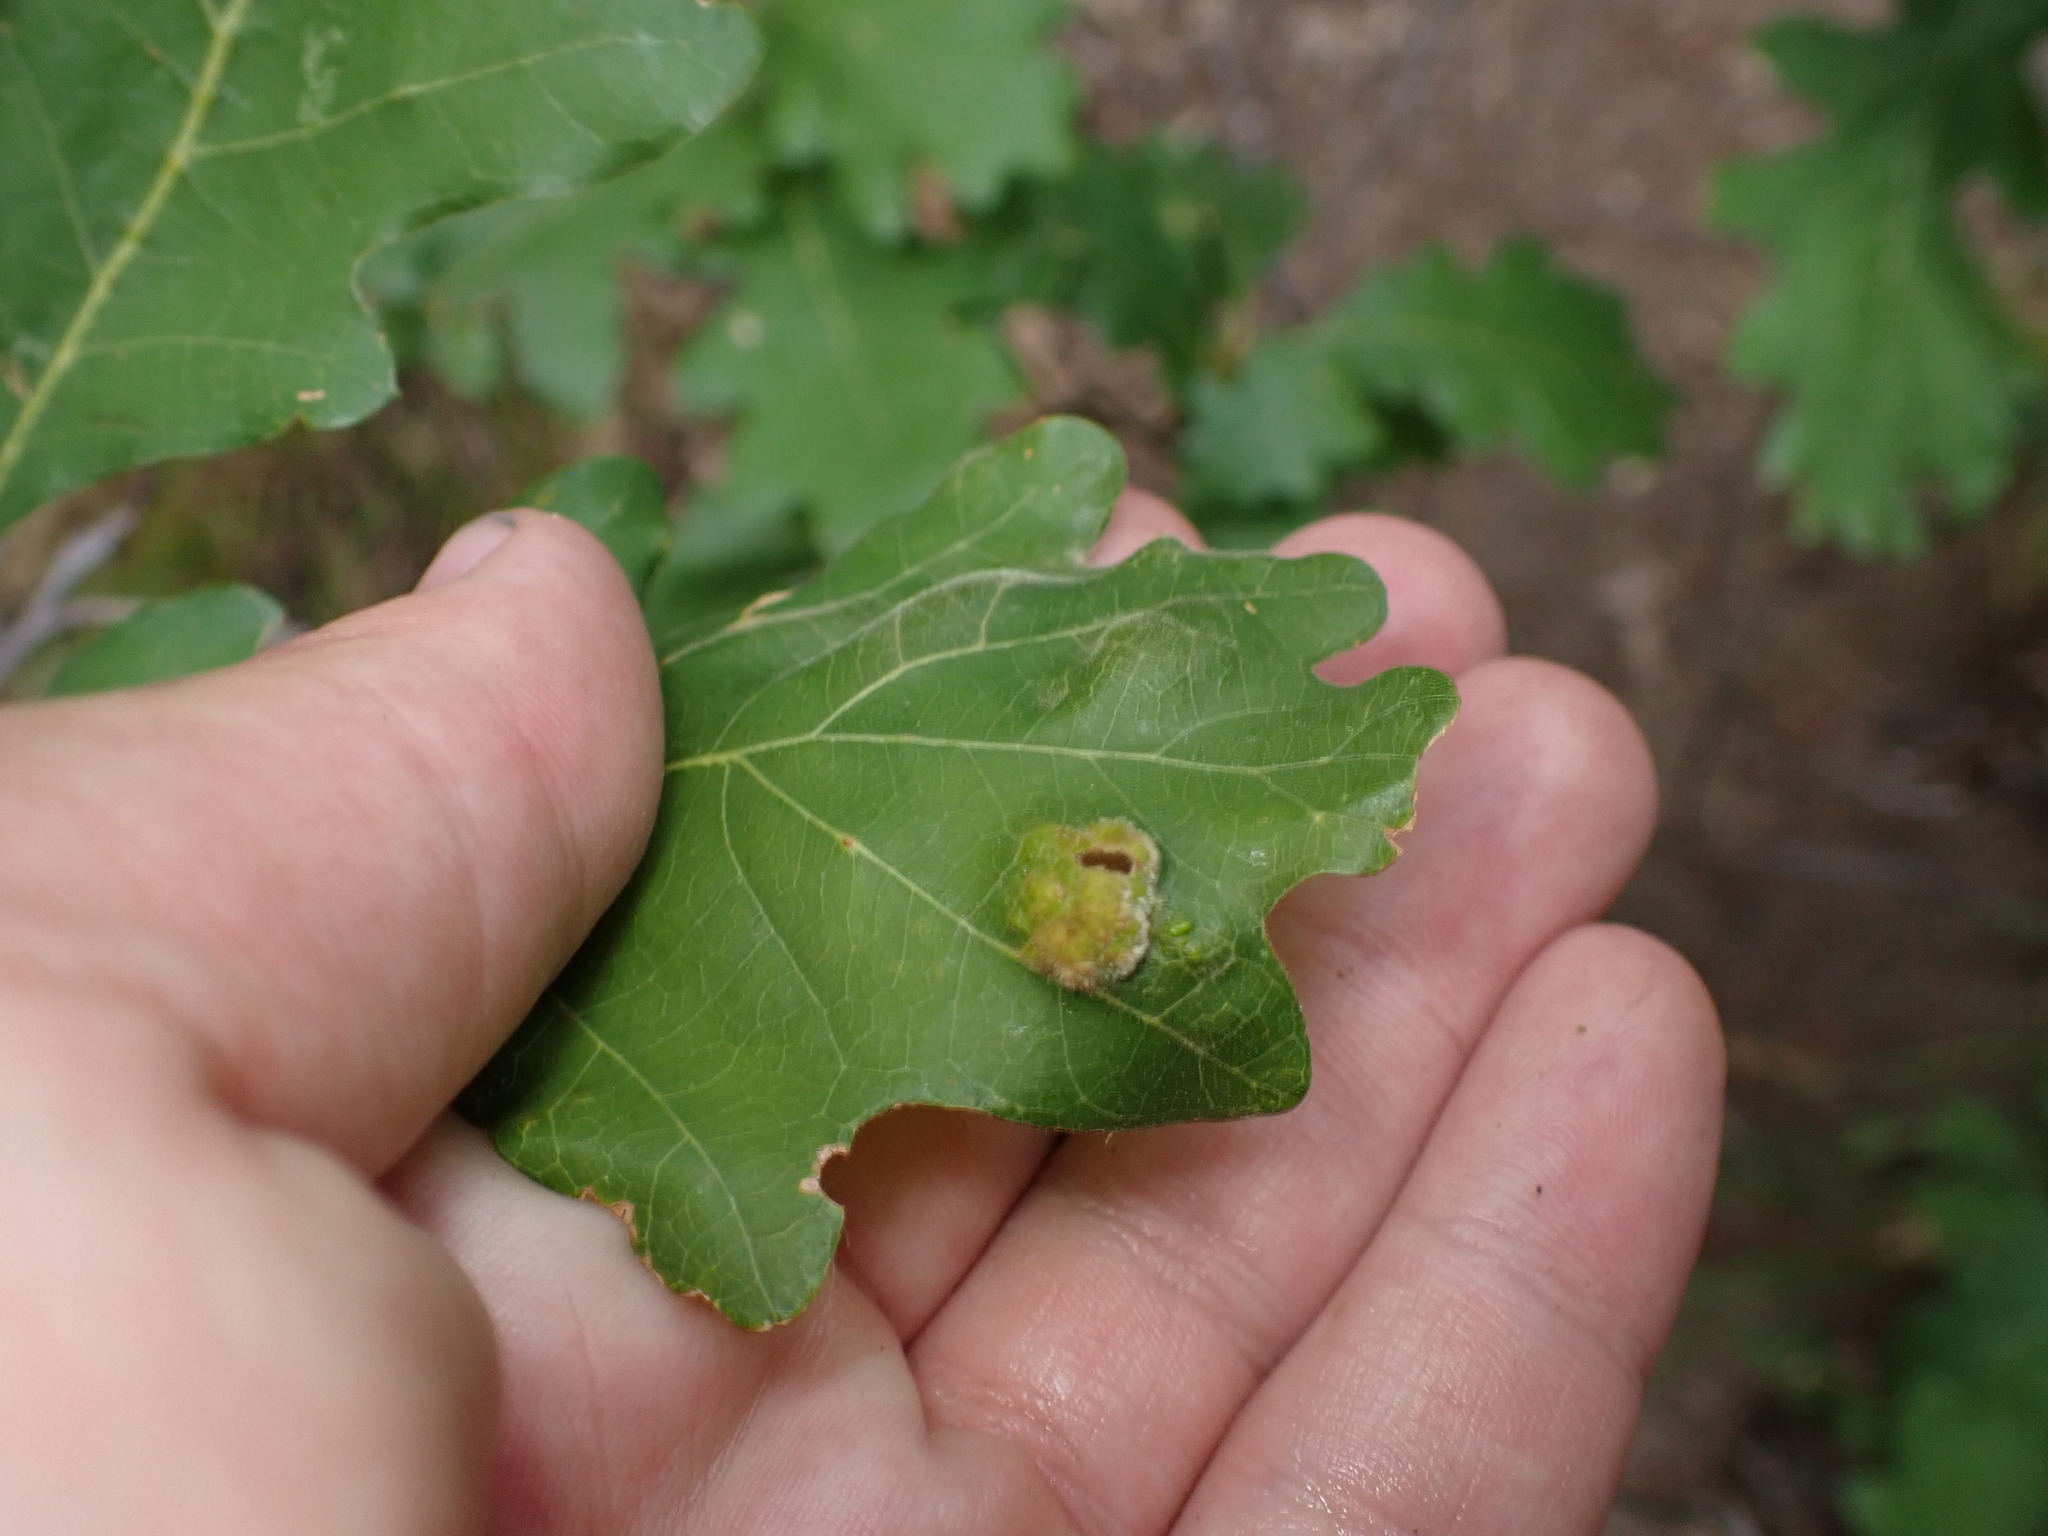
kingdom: Animalia
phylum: Arthropoda
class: Arachnida
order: Trombidiformes
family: Eriophyidae
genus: Aceria
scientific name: Aceria
